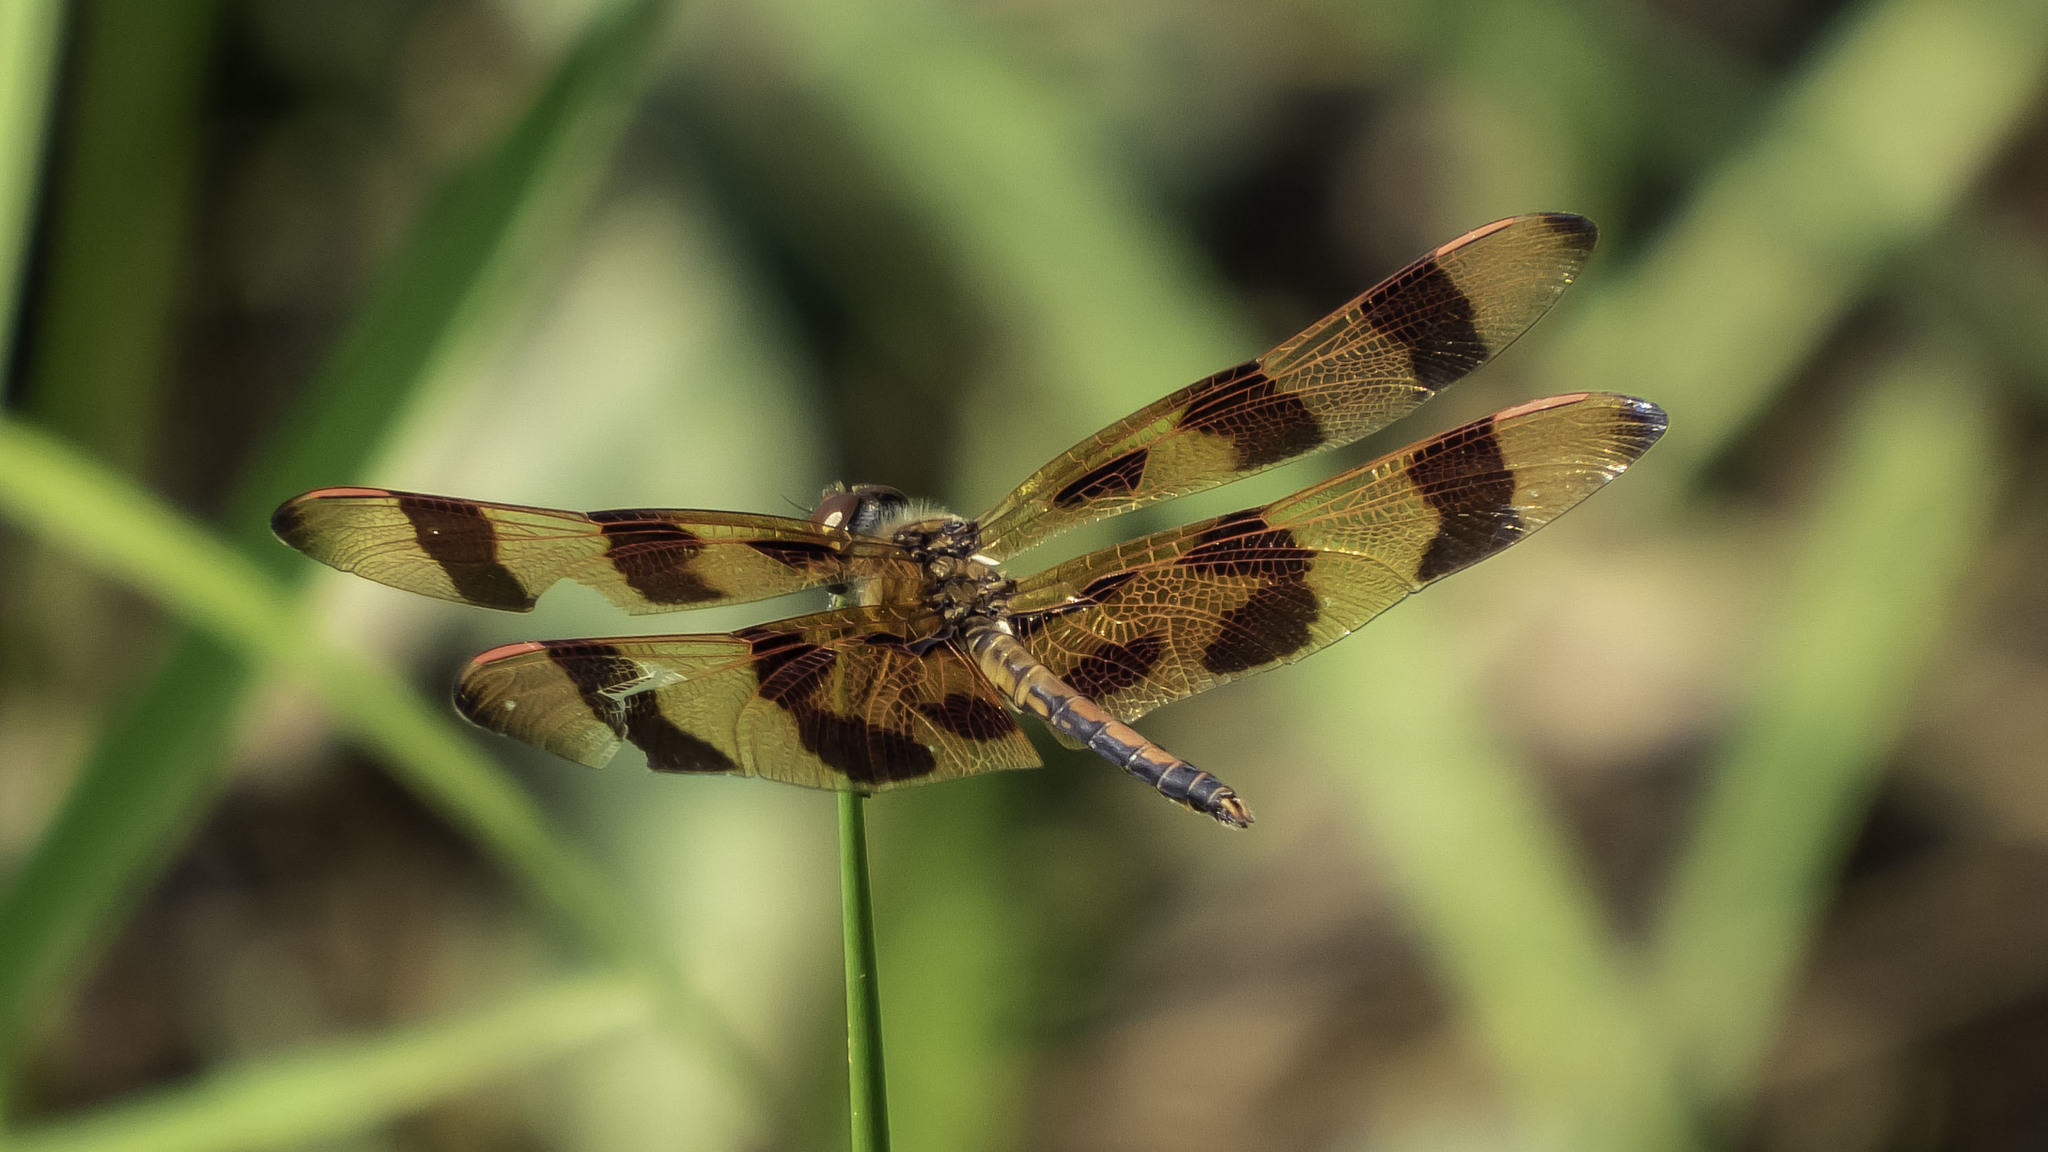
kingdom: Animalia
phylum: Arthropoda
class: Insecta
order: Odonata
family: Libellulidae
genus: Celithemis
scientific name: Celithemis eponina
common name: Halloween pennant
